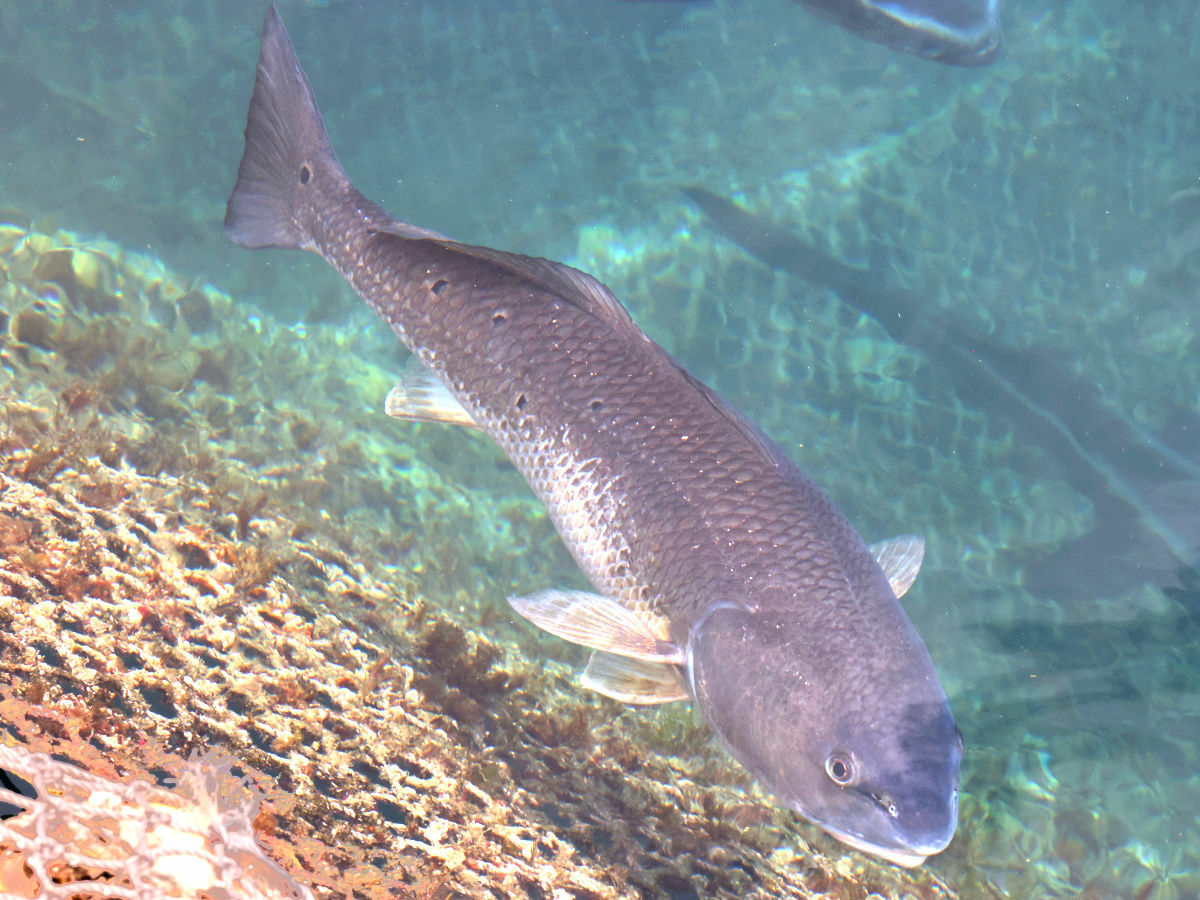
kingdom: Animalia
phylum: Chordata
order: Perciformes
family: Sciaenidae
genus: Sciaenops
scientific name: Sciaenops ocellatus
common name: Red drum
